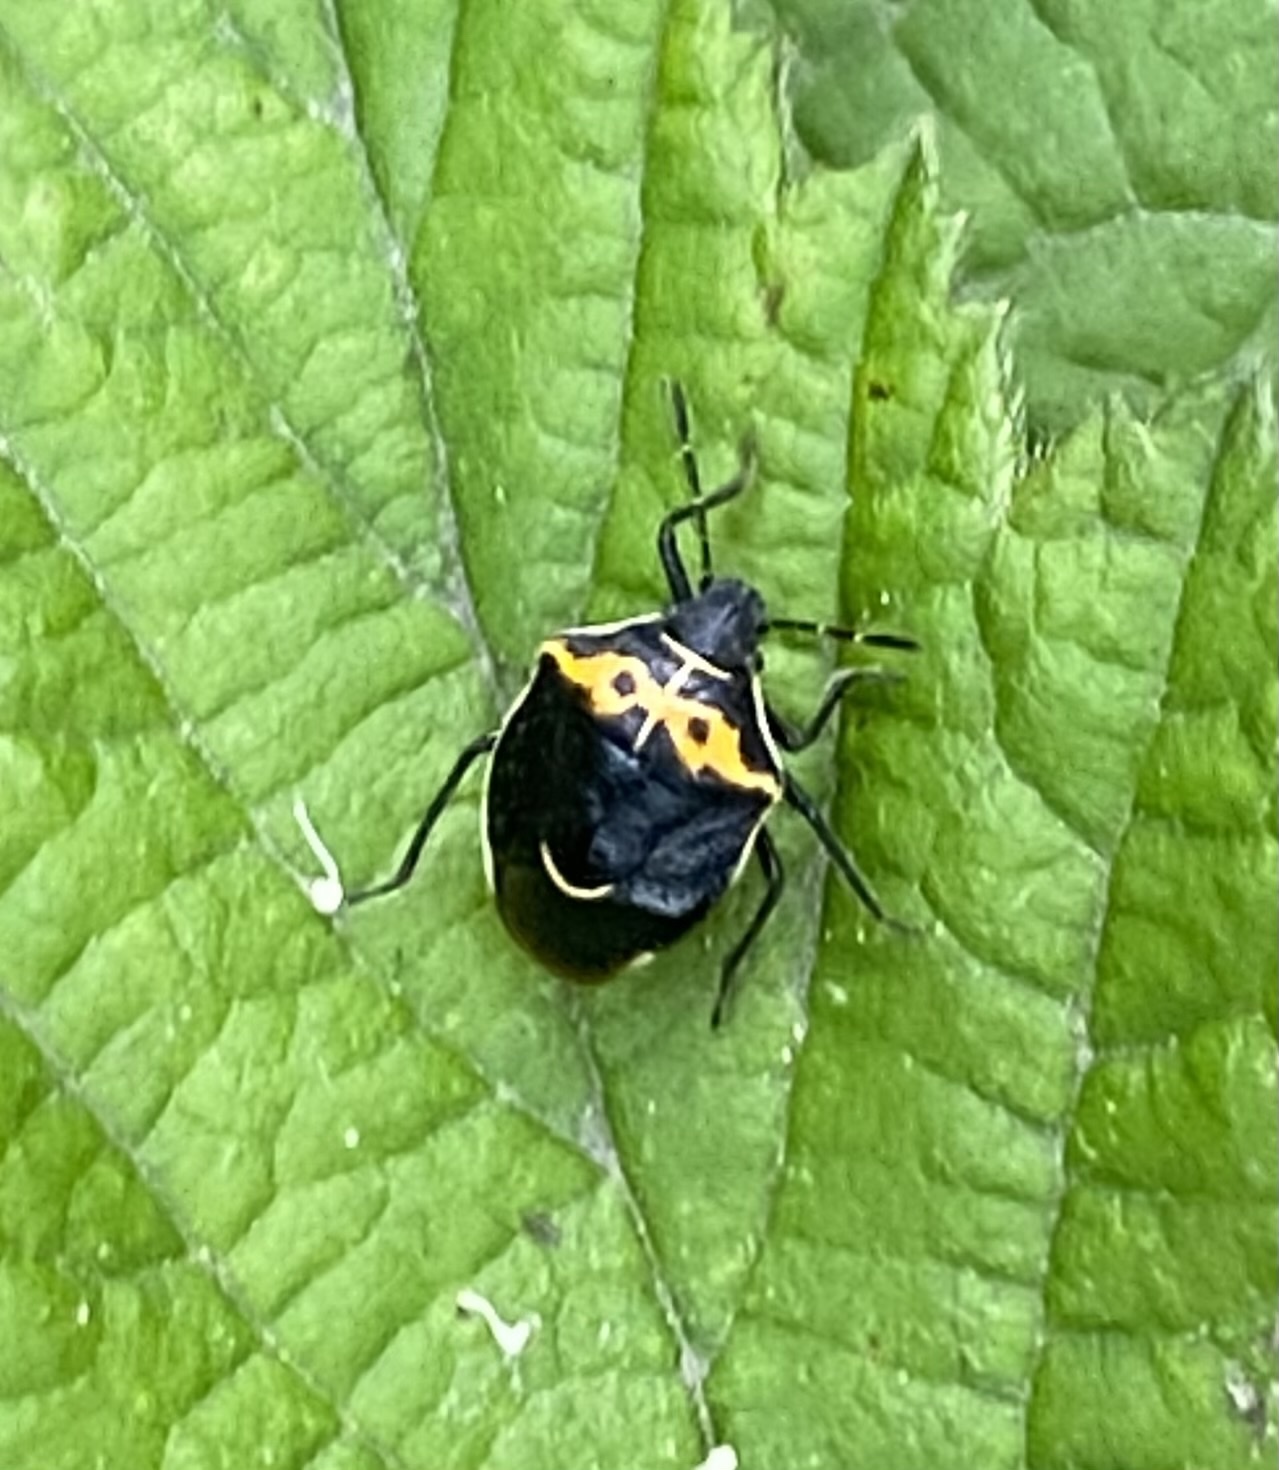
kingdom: Animalia
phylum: Arthropoda
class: Insecta
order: Hemiptera
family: Pentatomidae
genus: Cosmopepla
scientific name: Cosmopepla conspicillaris
